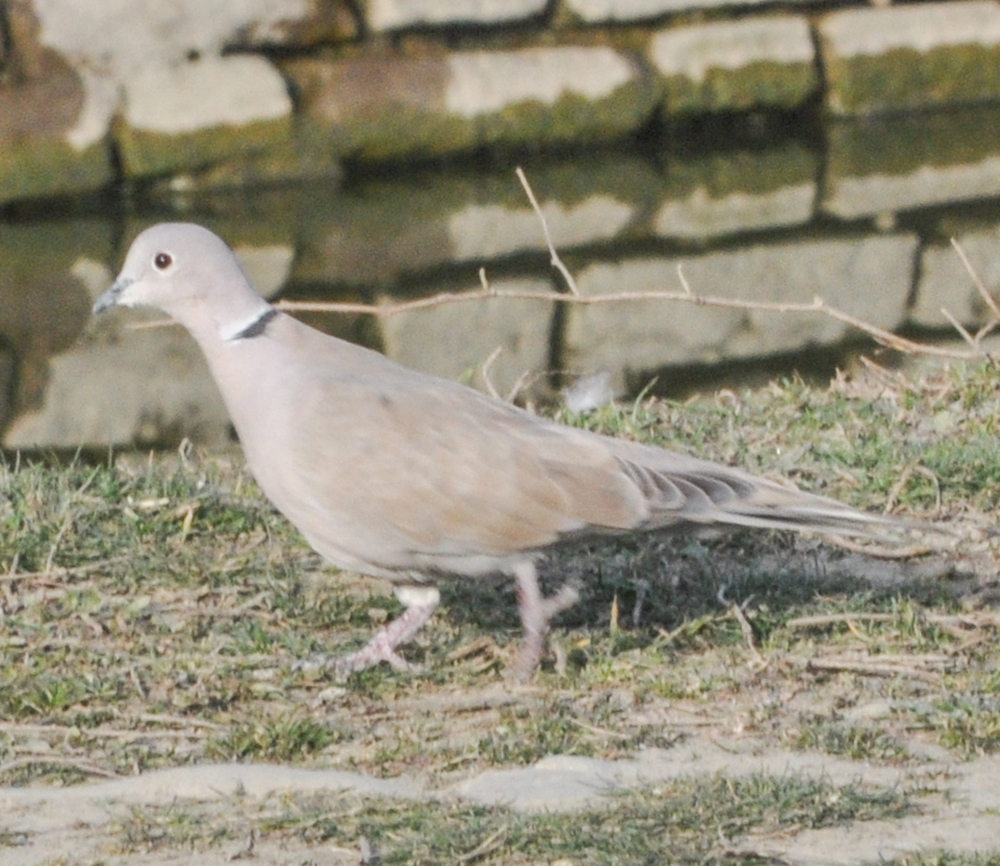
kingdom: Animalia
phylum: Chordata
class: Aves
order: Columbiformes
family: Columbidae
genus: Streptopelia
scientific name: Streptopelia decaocto
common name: Eurasian collared dove
